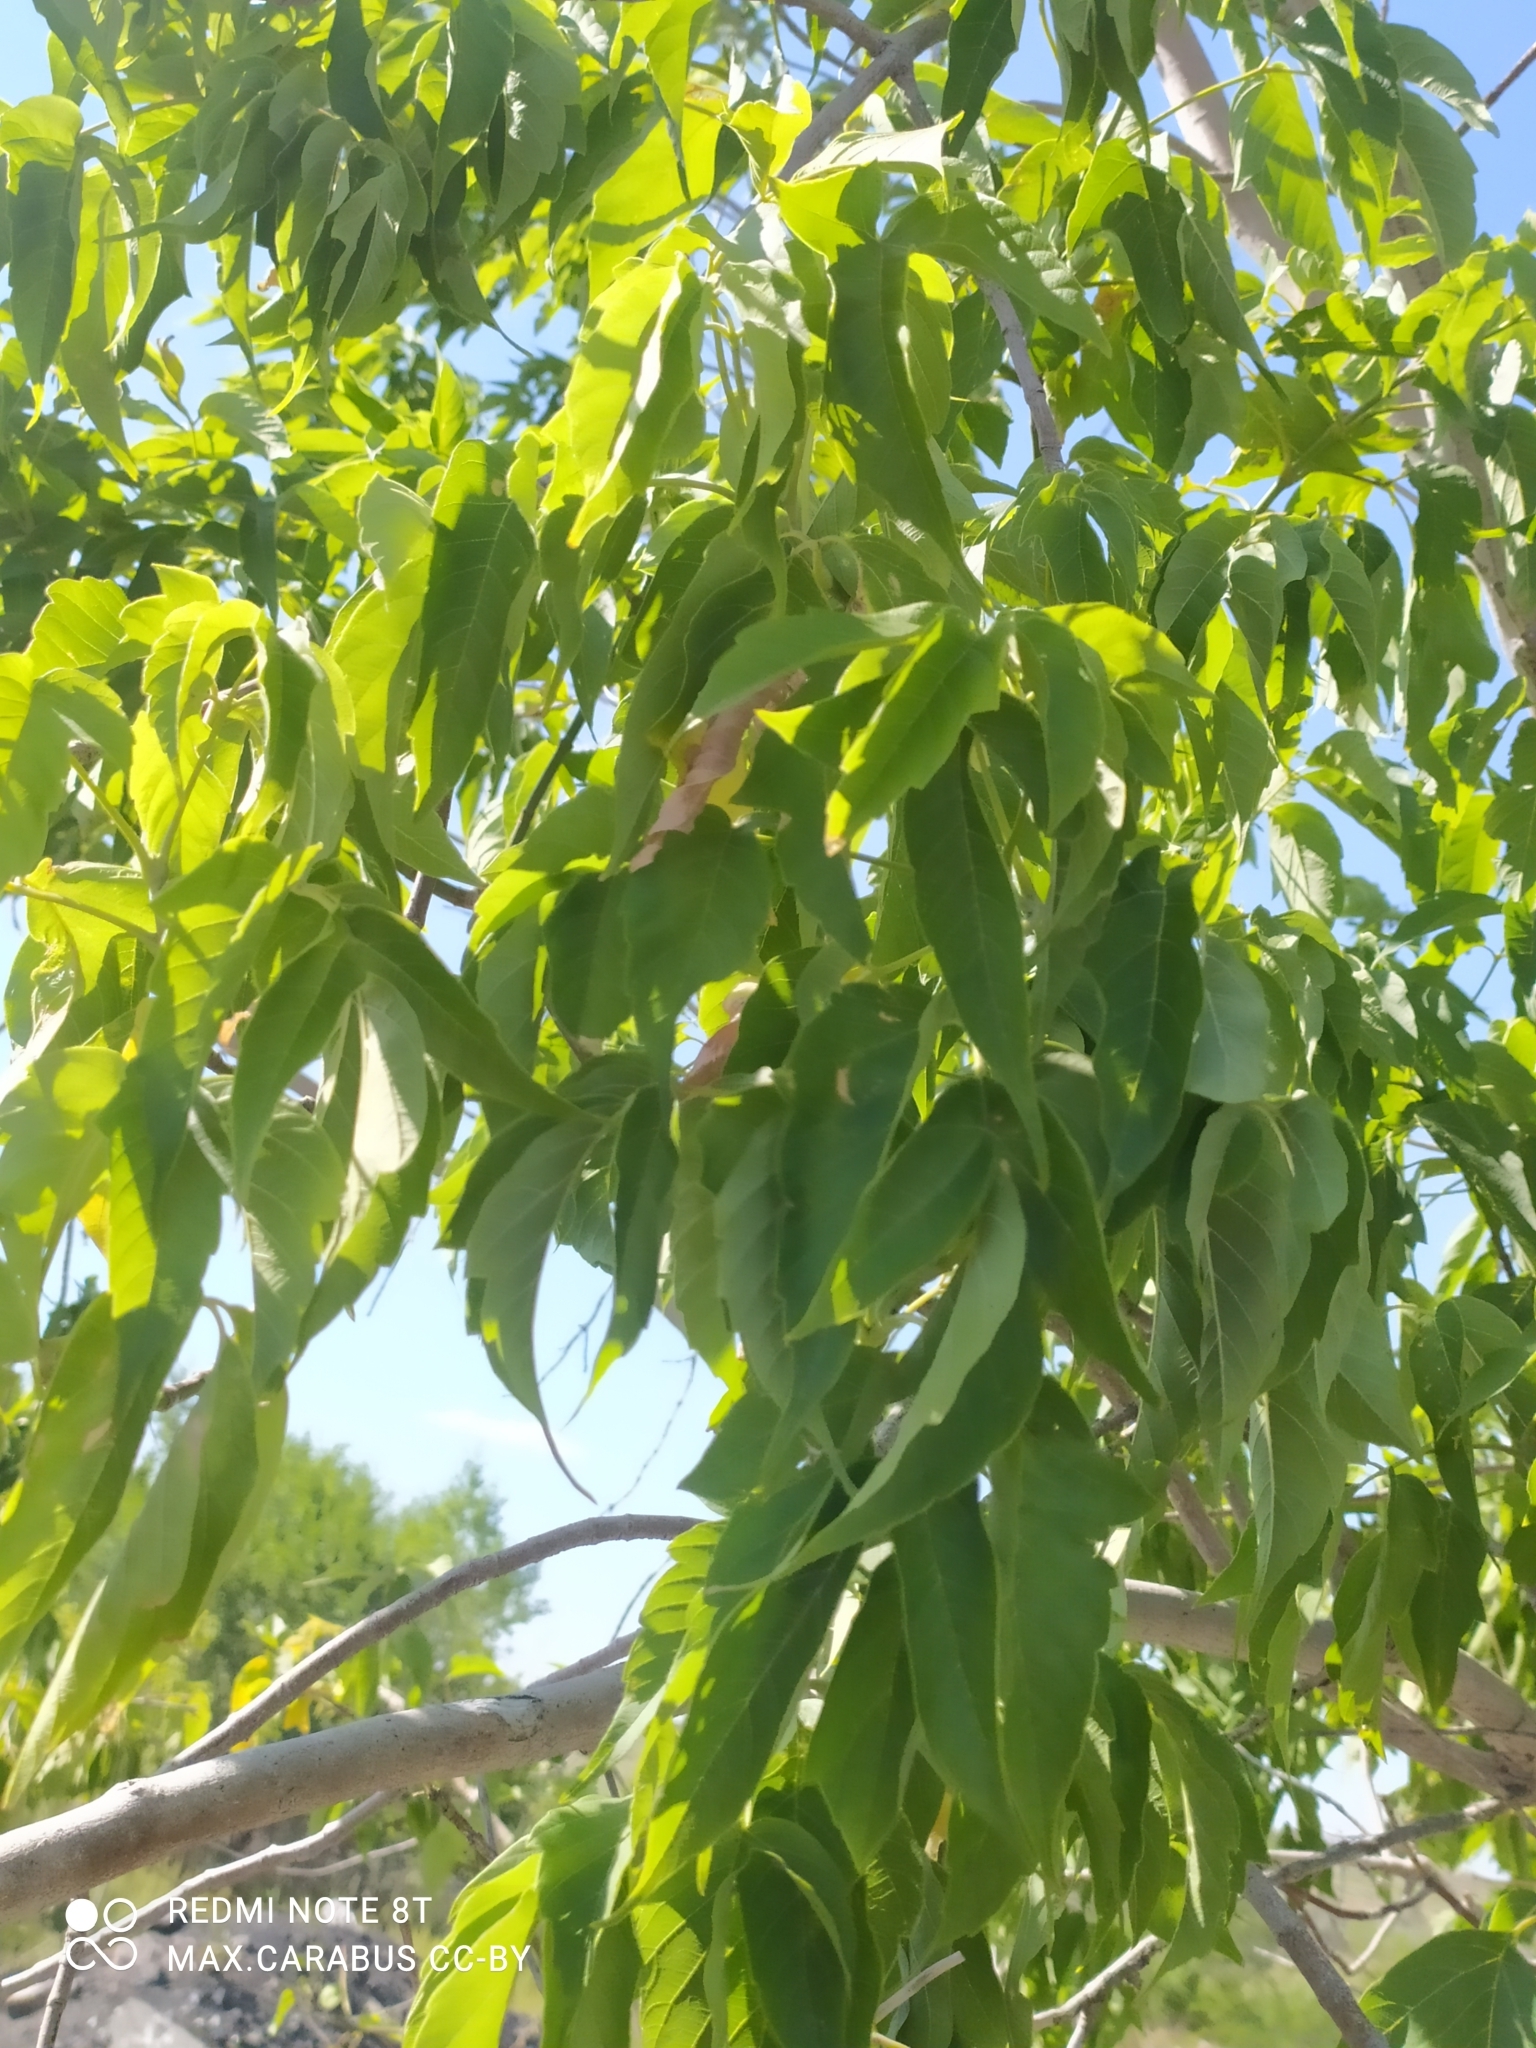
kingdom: Plantae
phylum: Tracheophyta
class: Magnoliopsida
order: Sapindales
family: Sapindaceae
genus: Acer
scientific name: Acer negundo
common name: Ashleaf maple
